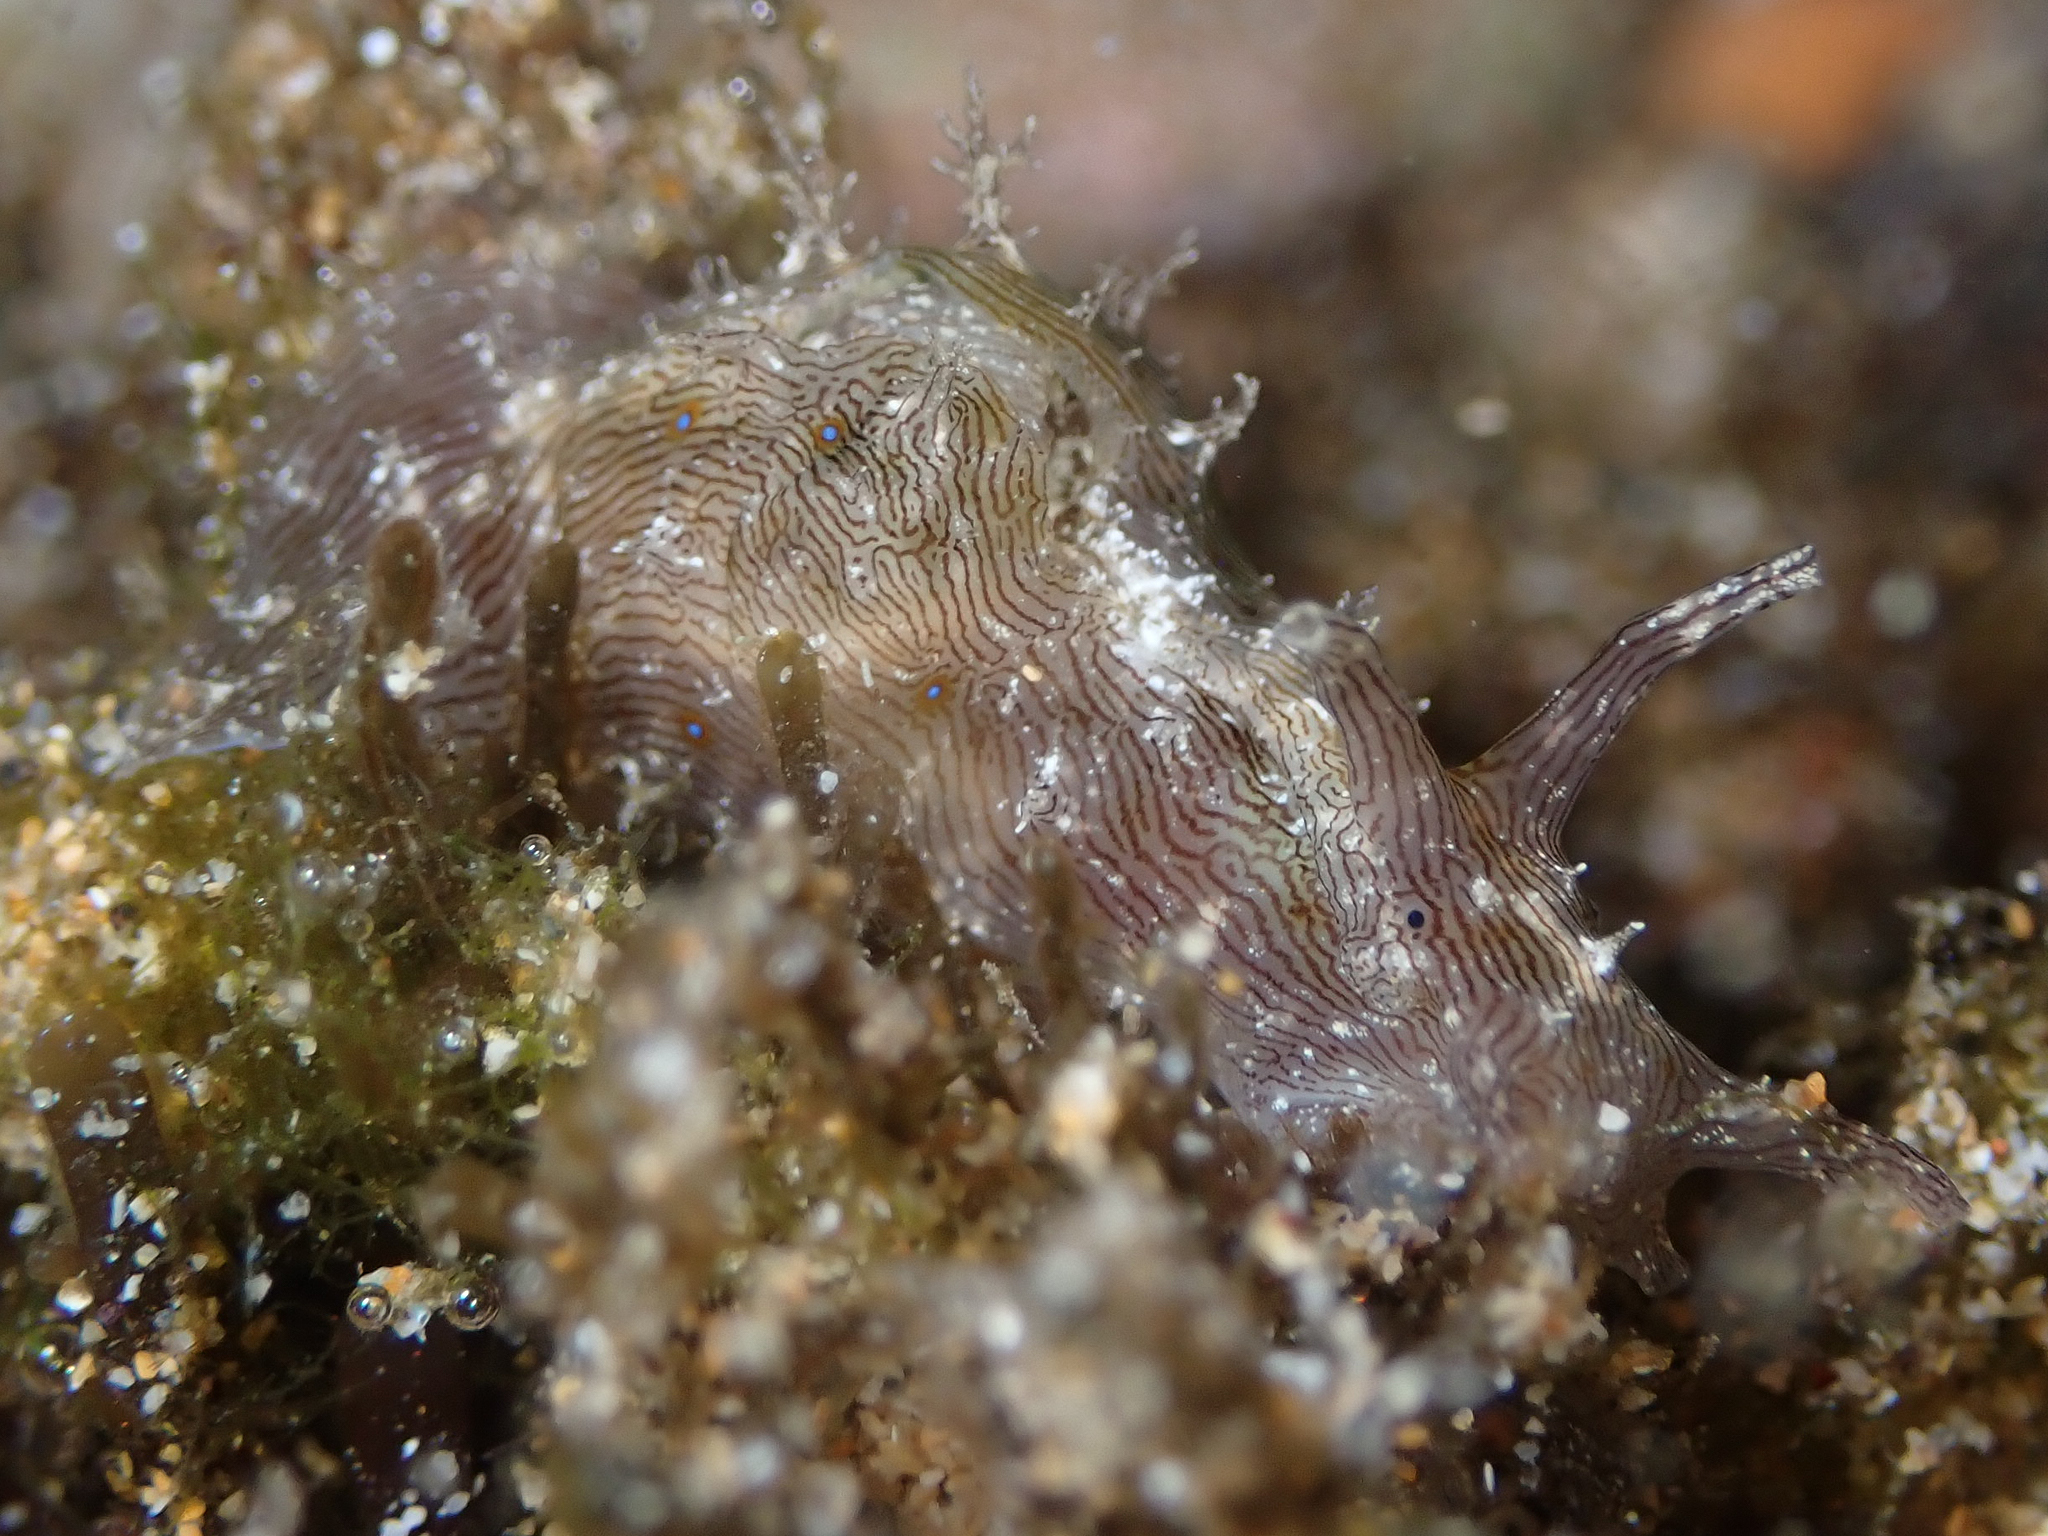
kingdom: Animalia
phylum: Mollusca
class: Gastropoda
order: Aplysiida
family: Aplysiidae
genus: Stylocheilus
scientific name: Stylocheilus striatus
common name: Striated seahare
